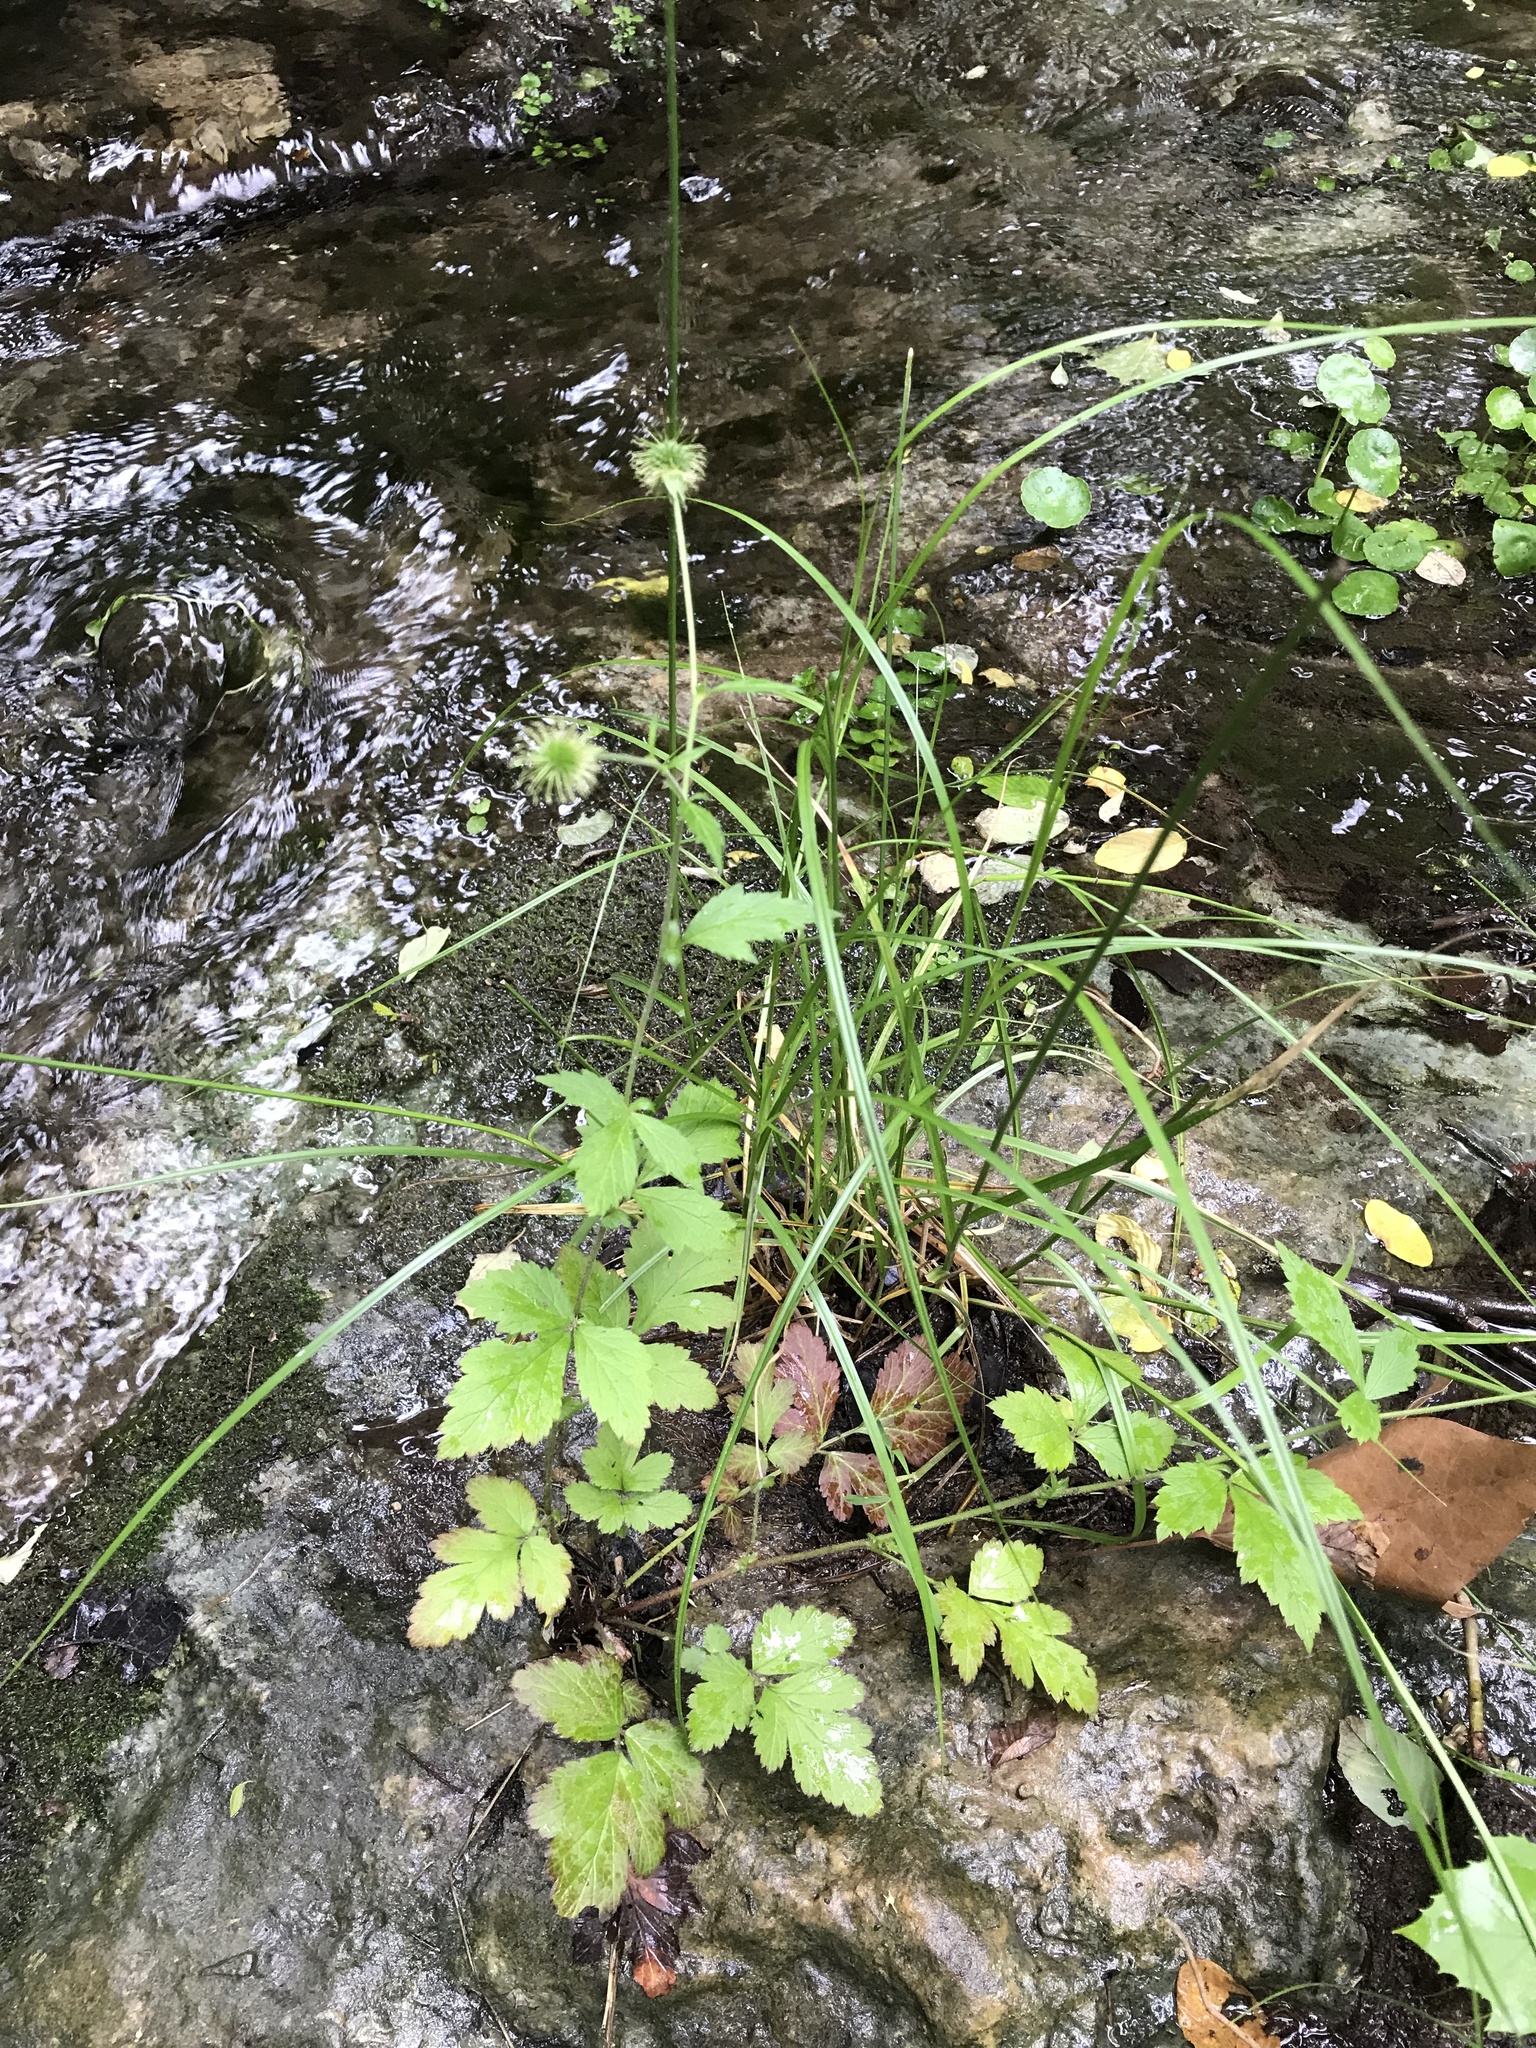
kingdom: Plantae
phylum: Tracheophyta
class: Magnoliopsida
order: Rosales
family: Rosaceae
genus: Geum
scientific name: Geum canadense
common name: White avens
